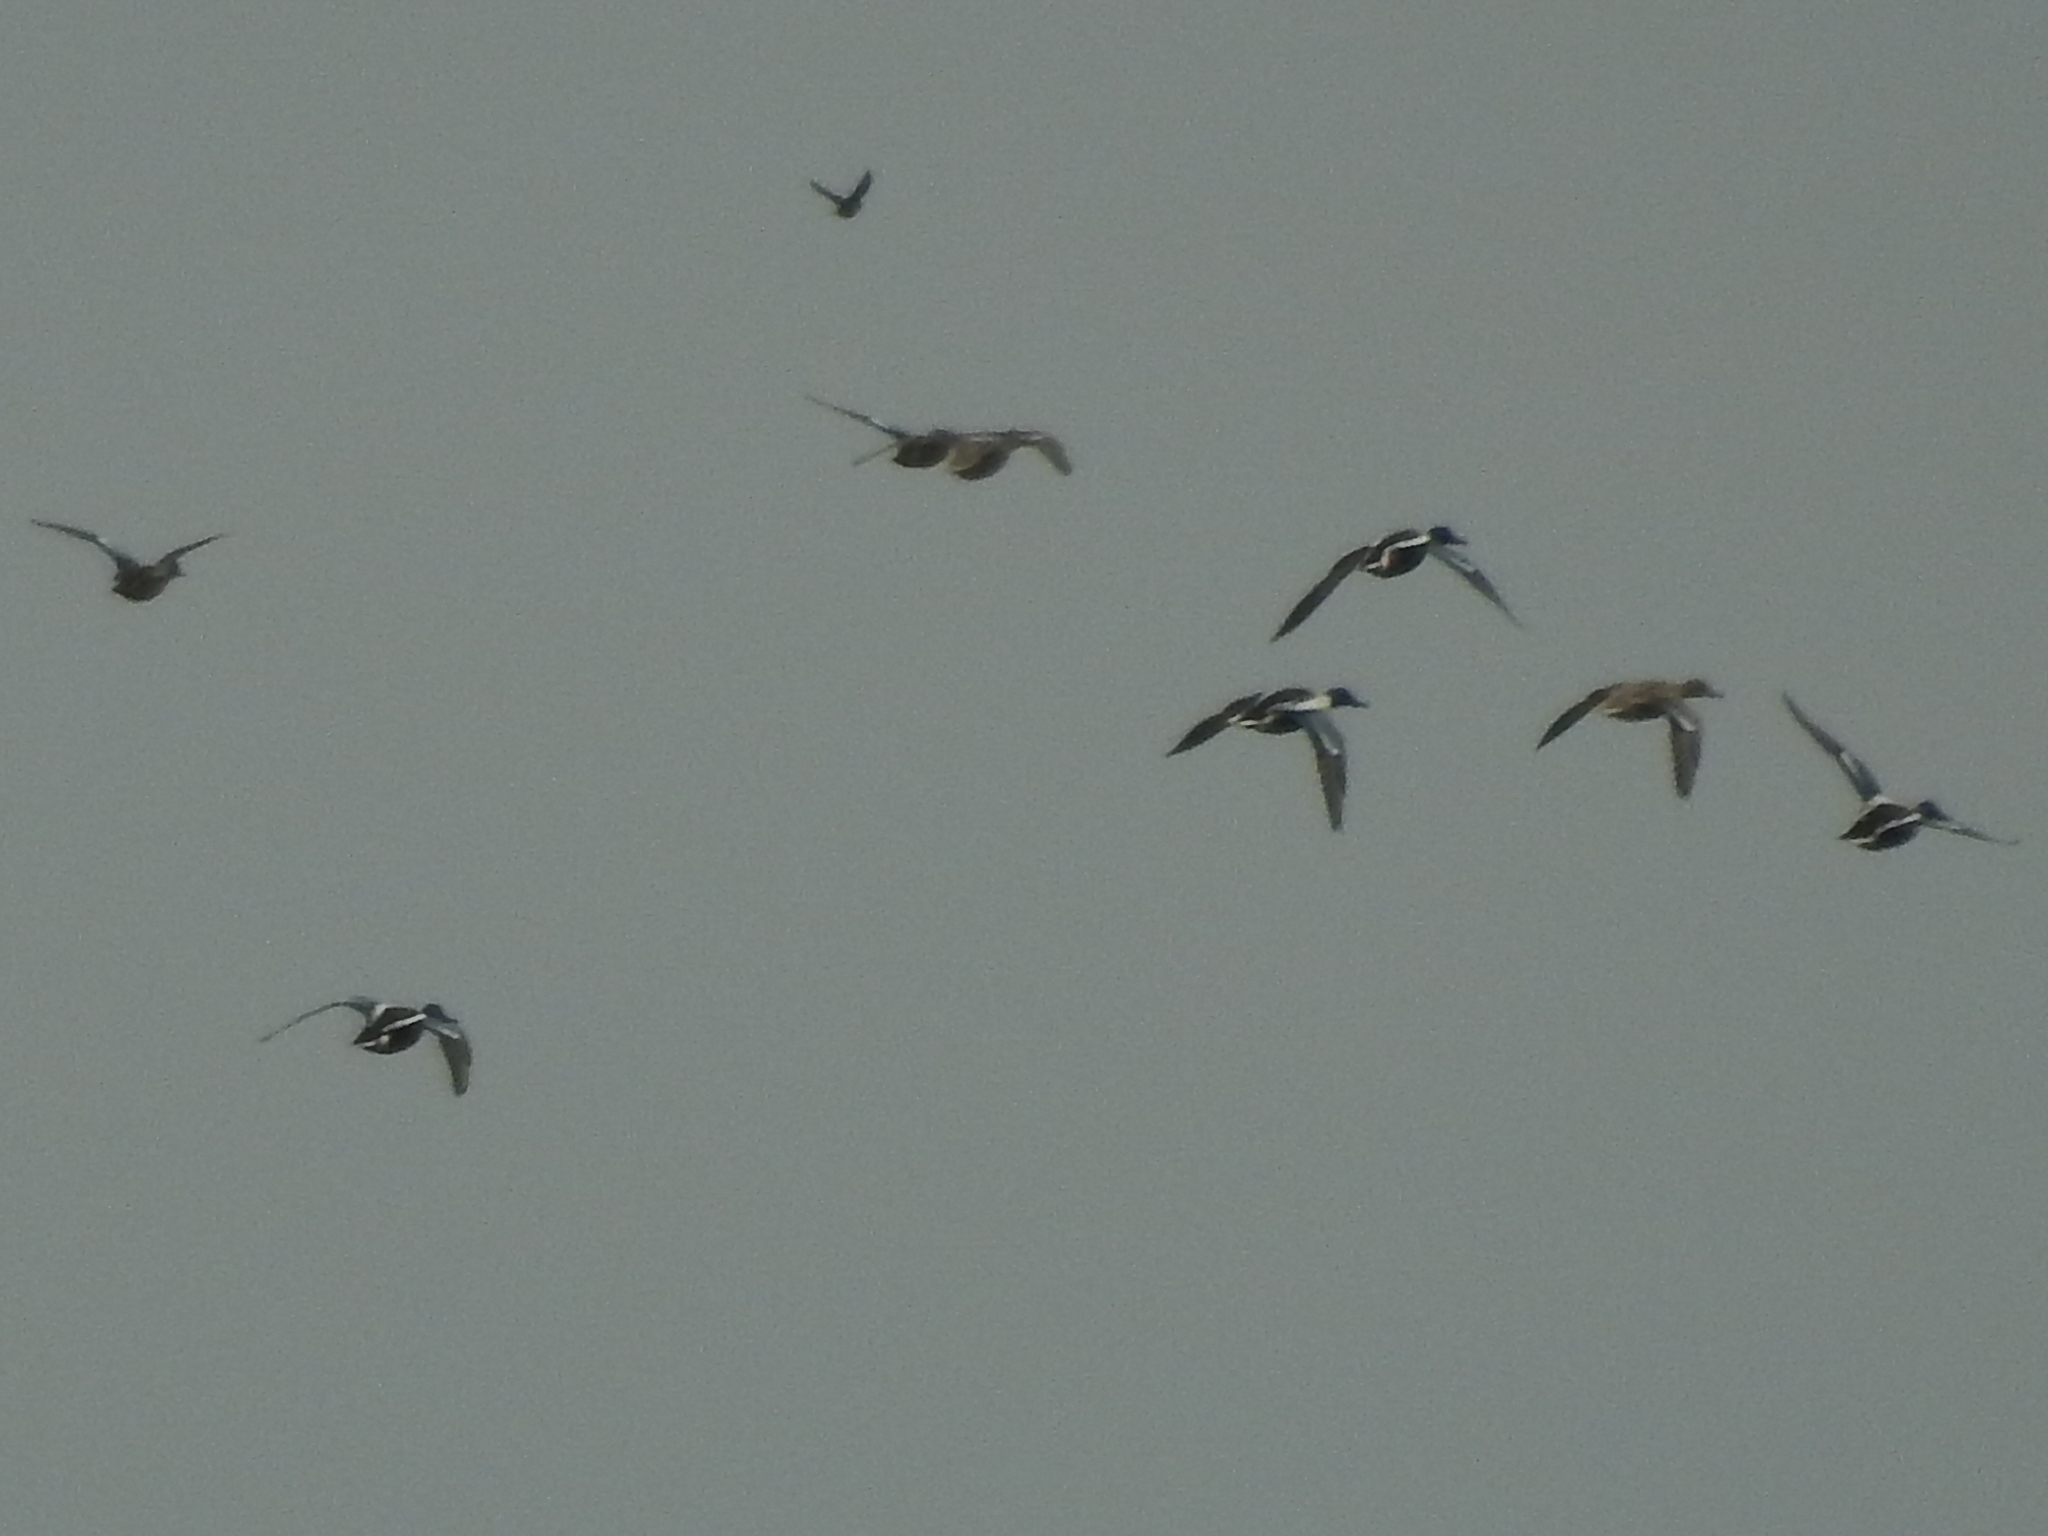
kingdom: Animalia
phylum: Chordata
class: Aves
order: Anseriformes
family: Anatidae
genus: Spatula
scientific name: Spatula clypeata
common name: Northern shoveler
